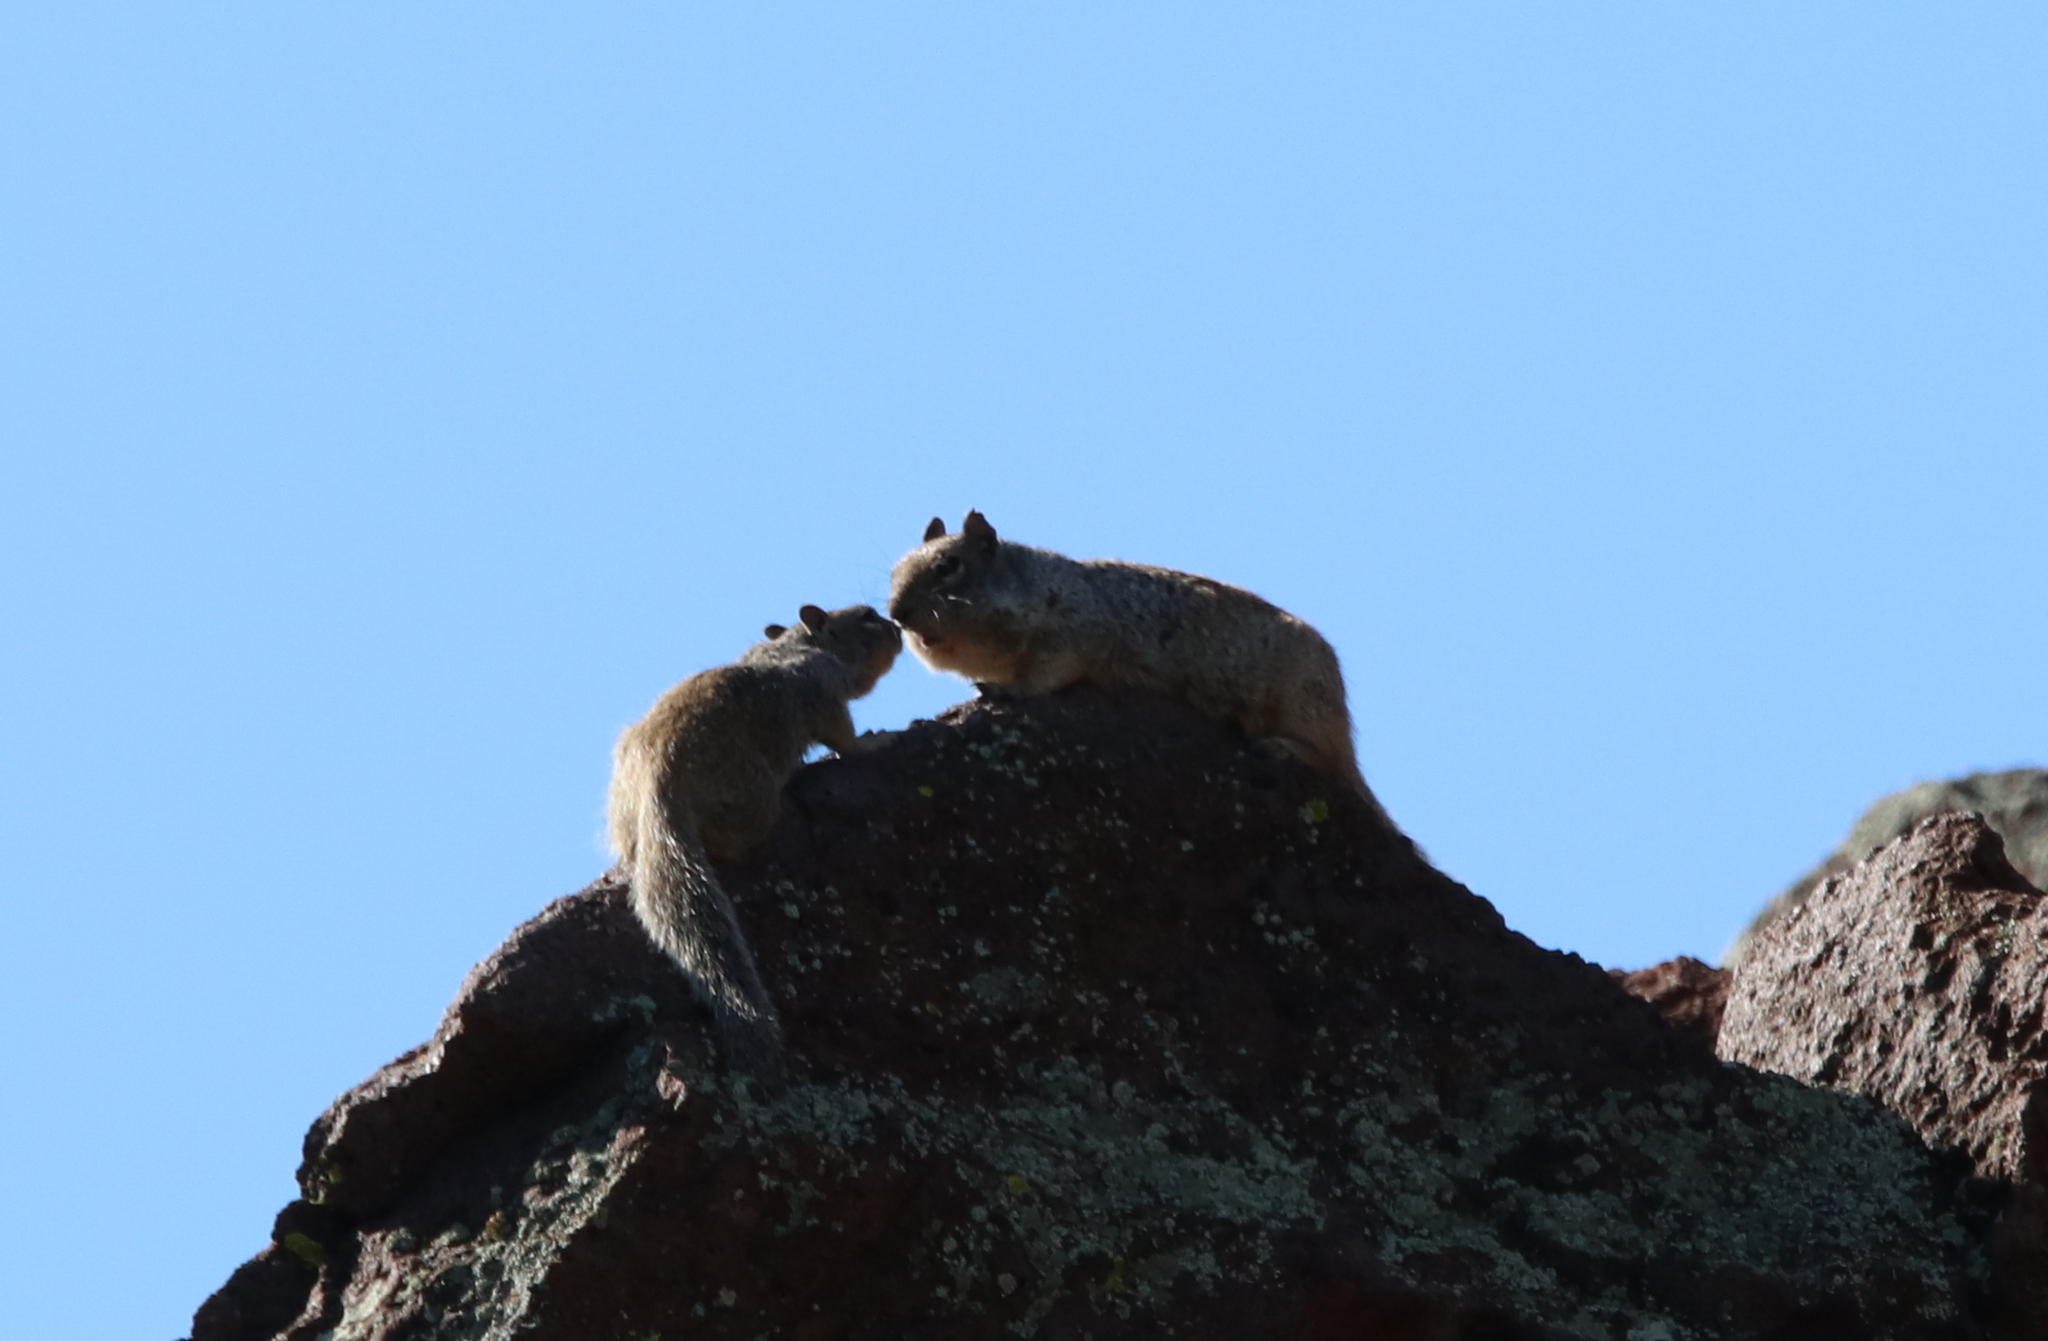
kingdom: Animalia
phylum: Chordata
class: Mammalia
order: Rodentia
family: Sciuridae
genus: Otospermophilus
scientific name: Otospermophilus variegatus
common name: Rock squirrel
